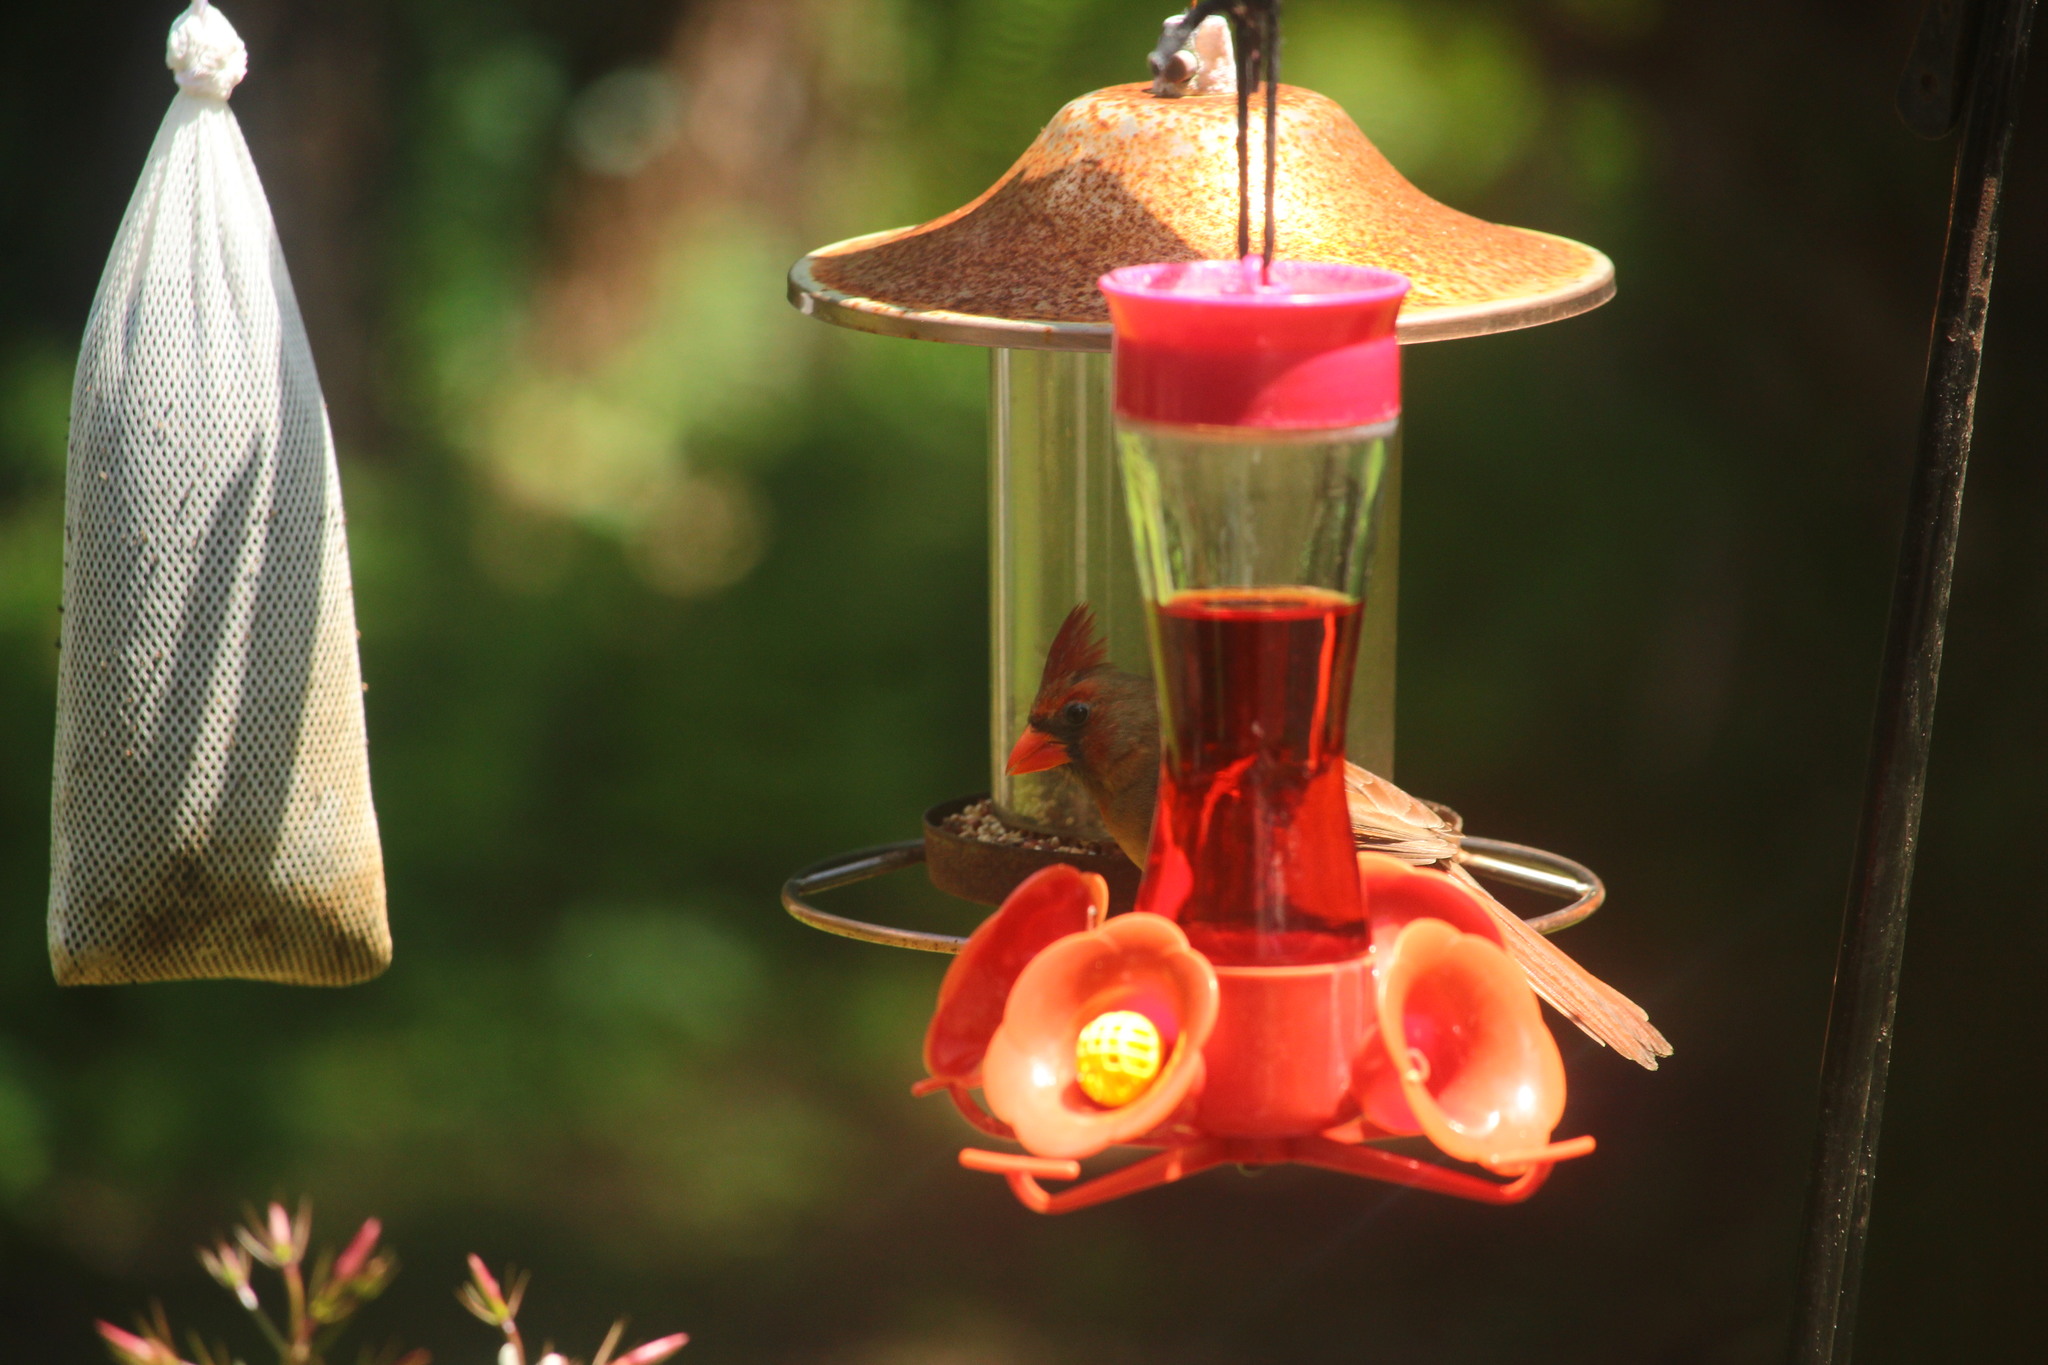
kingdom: Animalia
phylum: Chordata
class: Aves
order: Passeriformes
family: Cardinalidae
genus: Cardinalis
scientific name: Cardinalis cardinalis
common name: Northern cardinal
